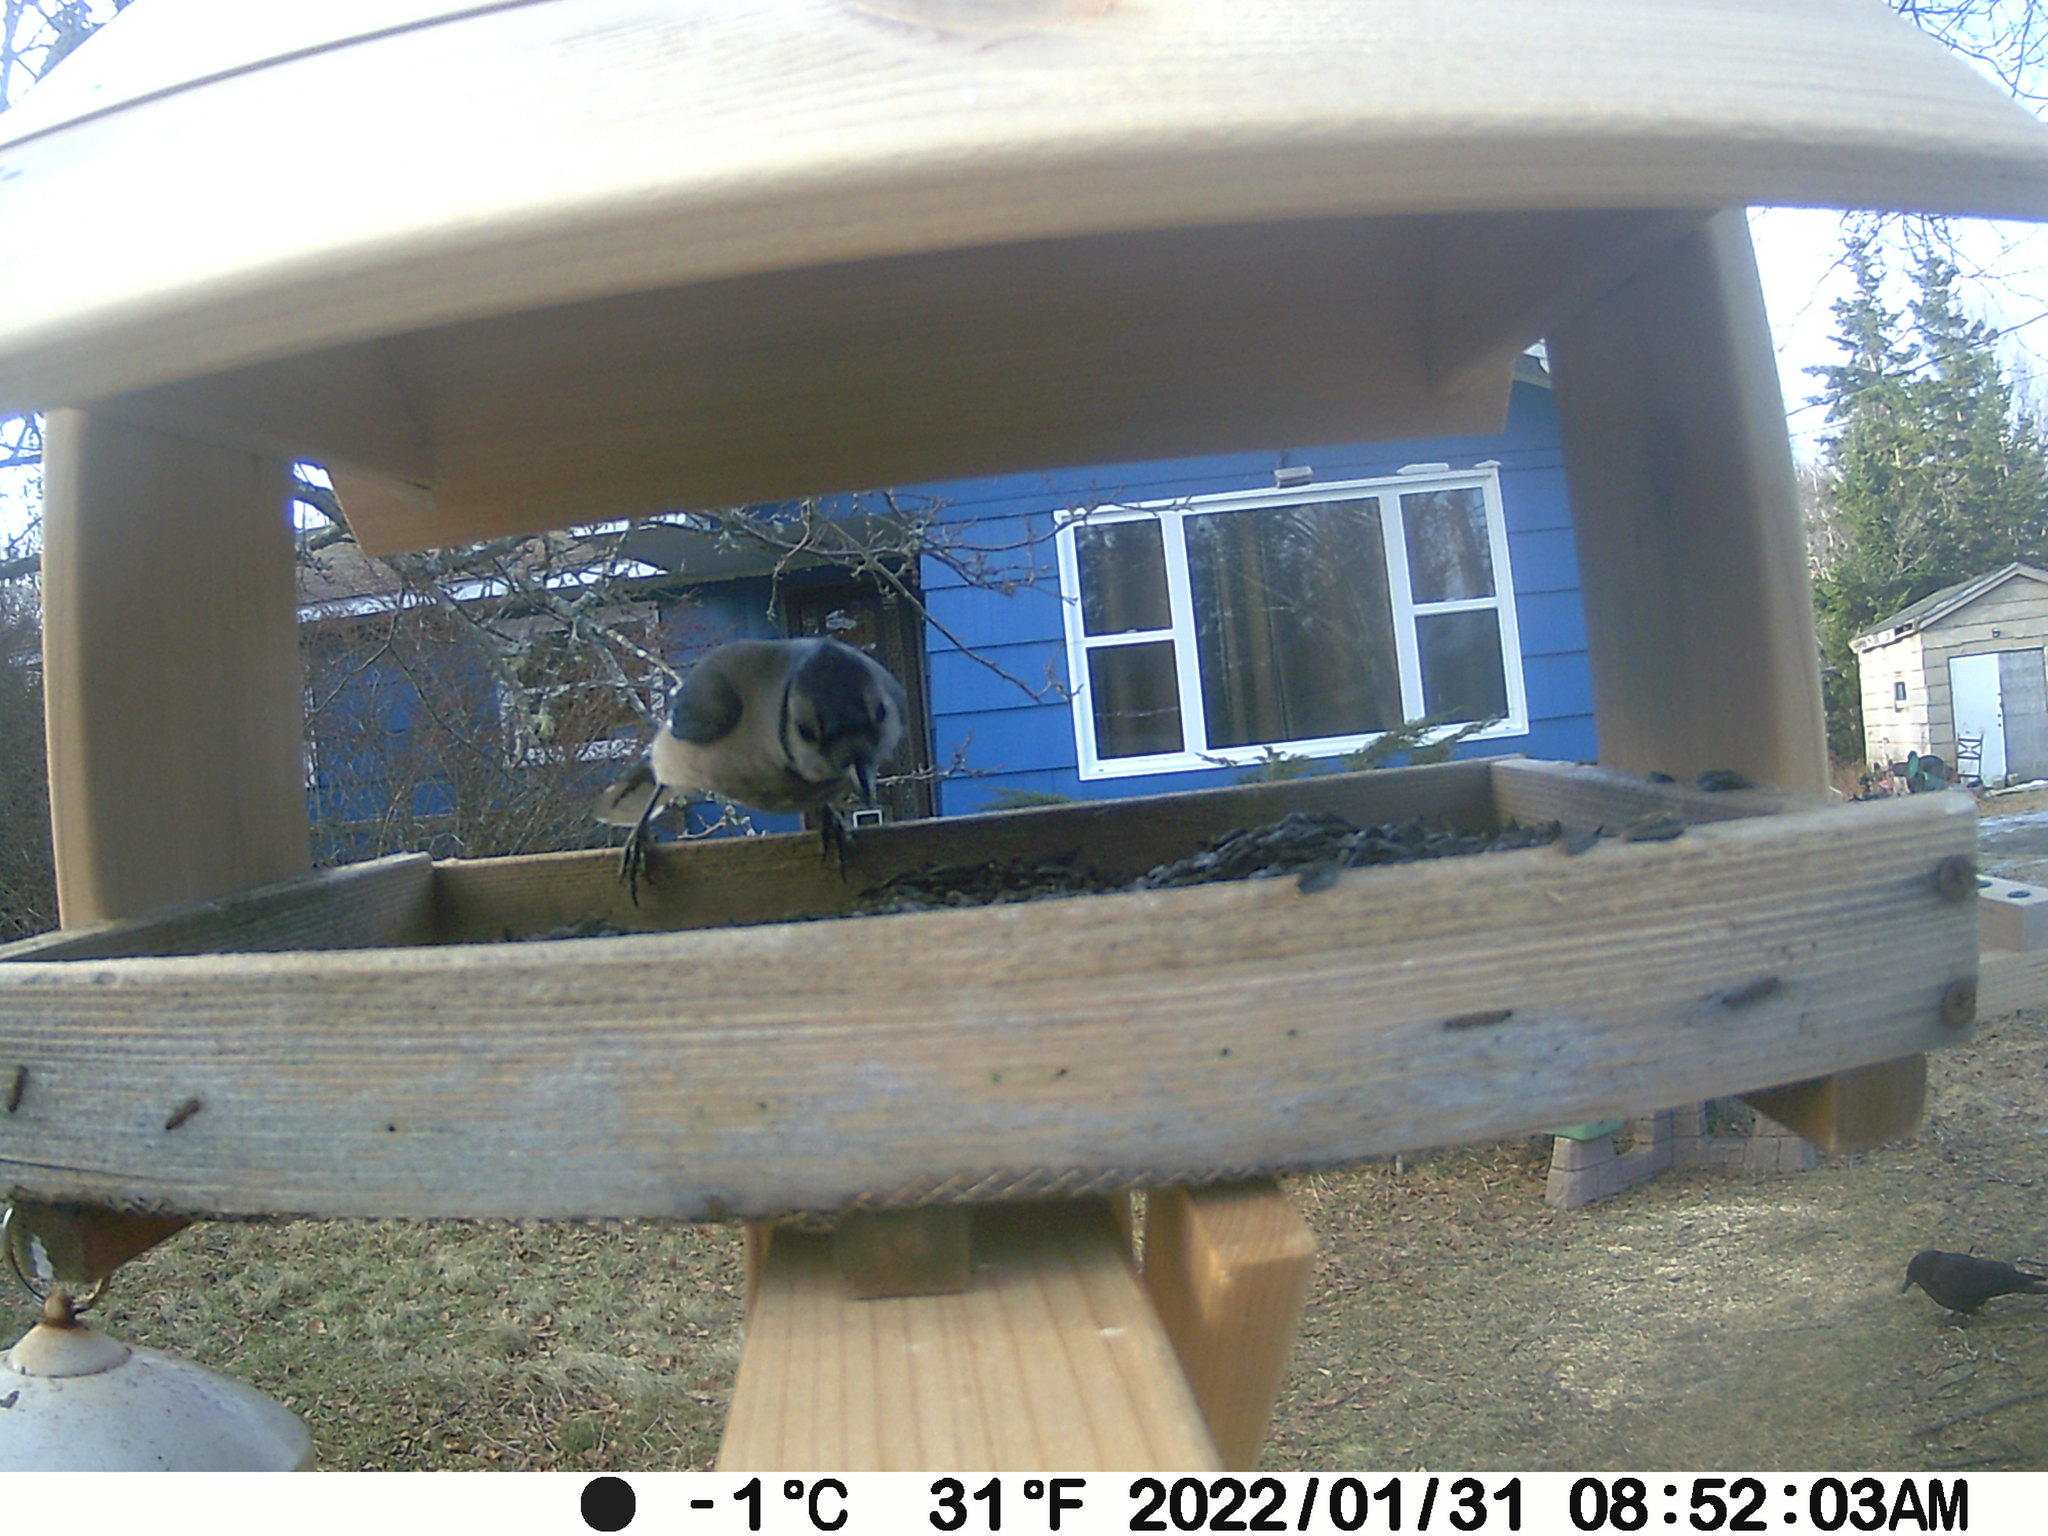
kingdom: Animalia
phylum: Chordata
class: Aves
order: Passeriformes
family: Corvidae
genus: Corvus
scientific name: Corvus brachyrhynchos
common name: American crow
